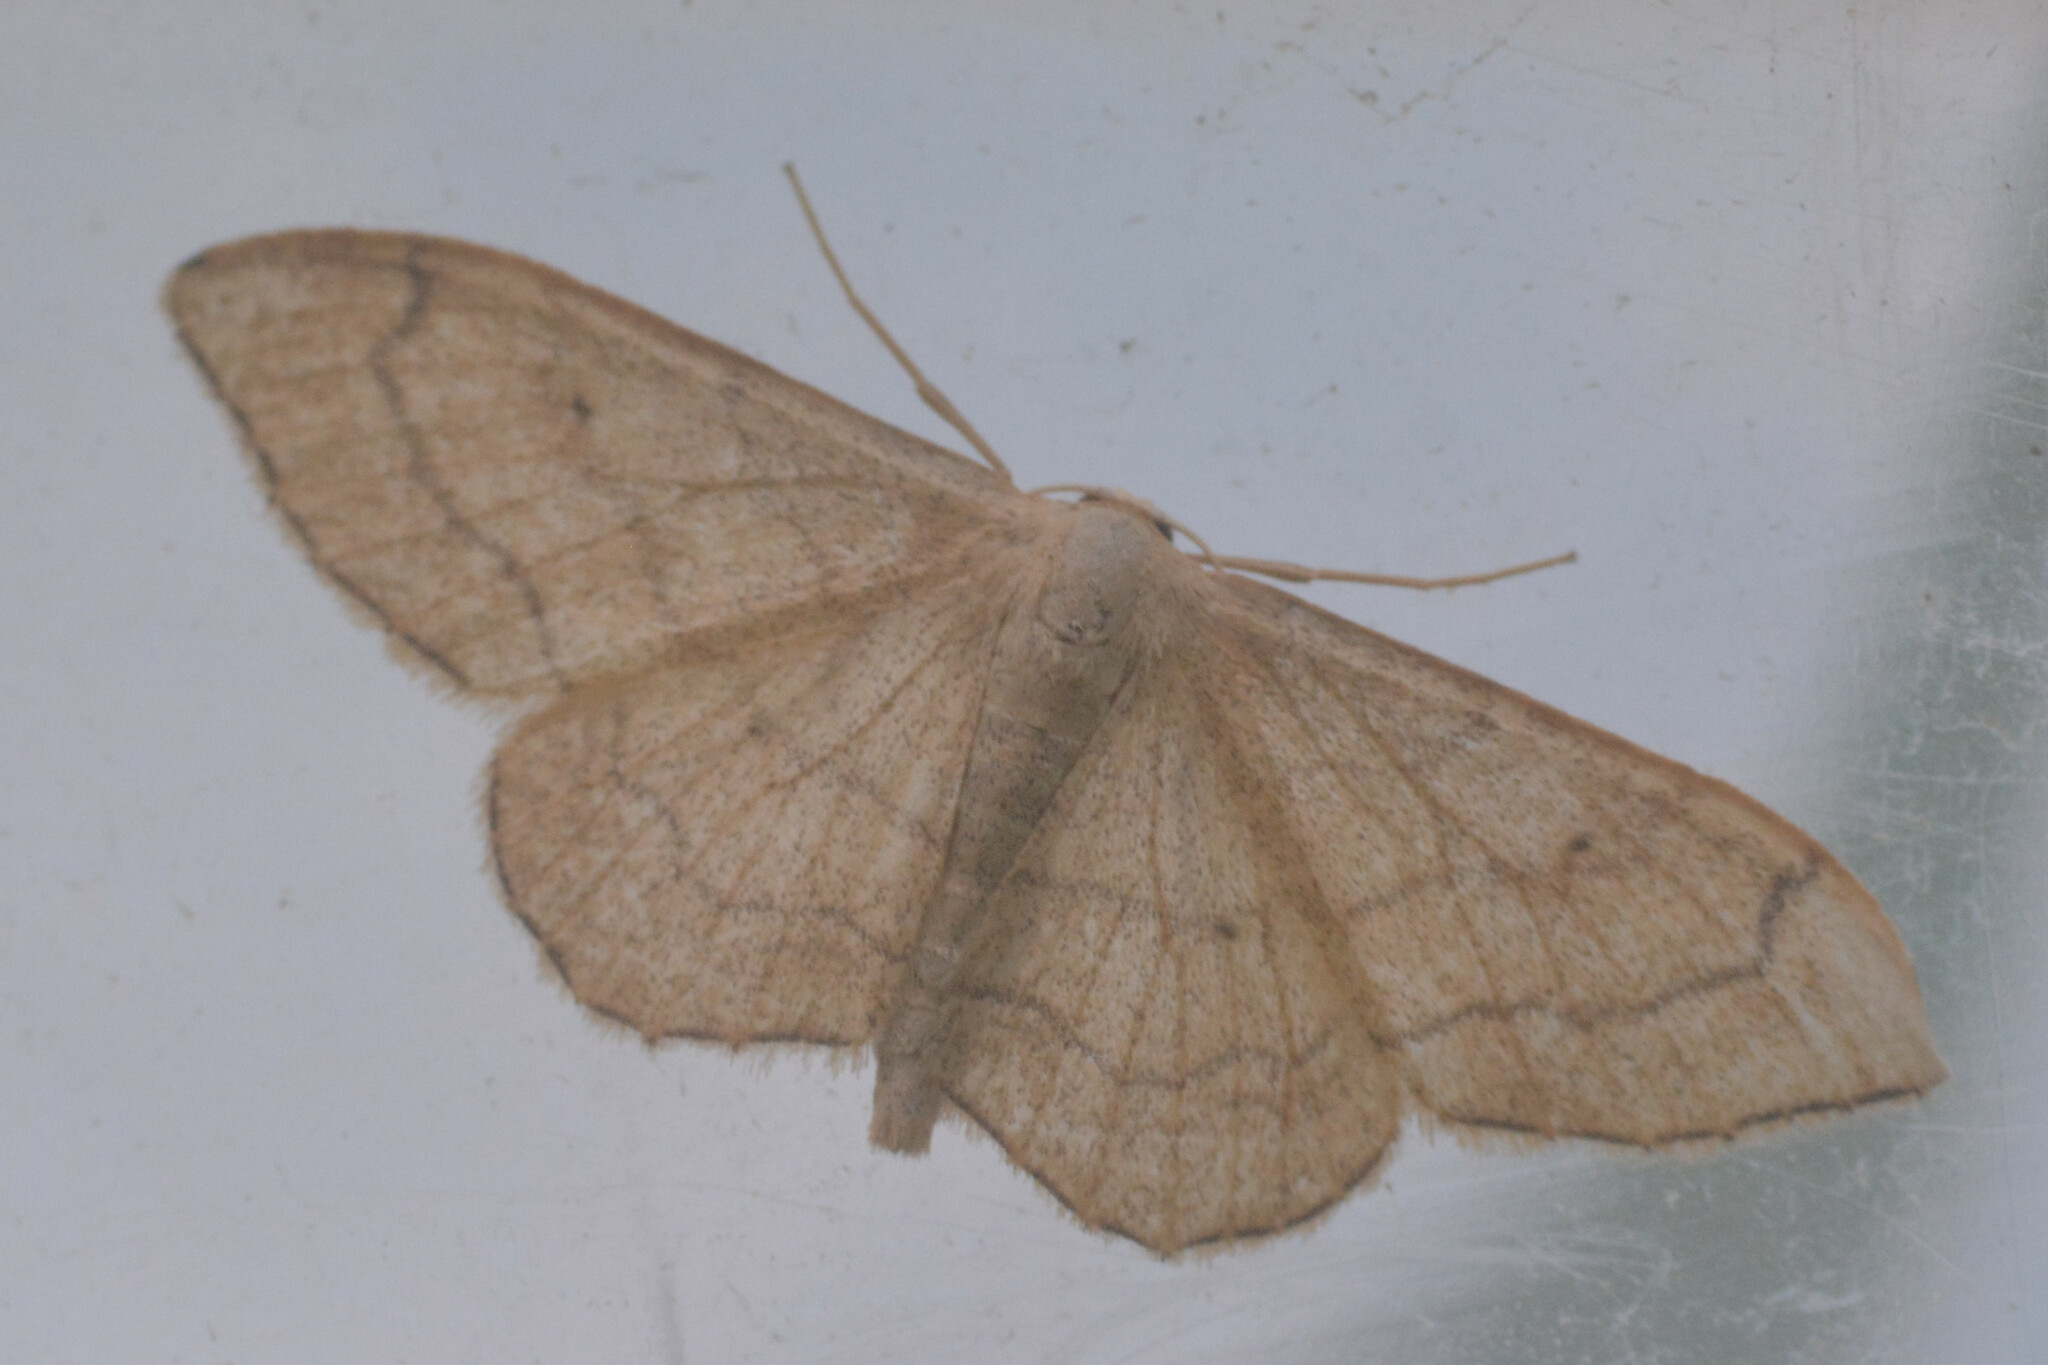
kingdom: Animalia
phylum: Arthropoda
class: Insecta
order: Lepidoptera
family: Geometridae
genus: Idaea
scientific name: Idaea aversata
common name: Riband wave
